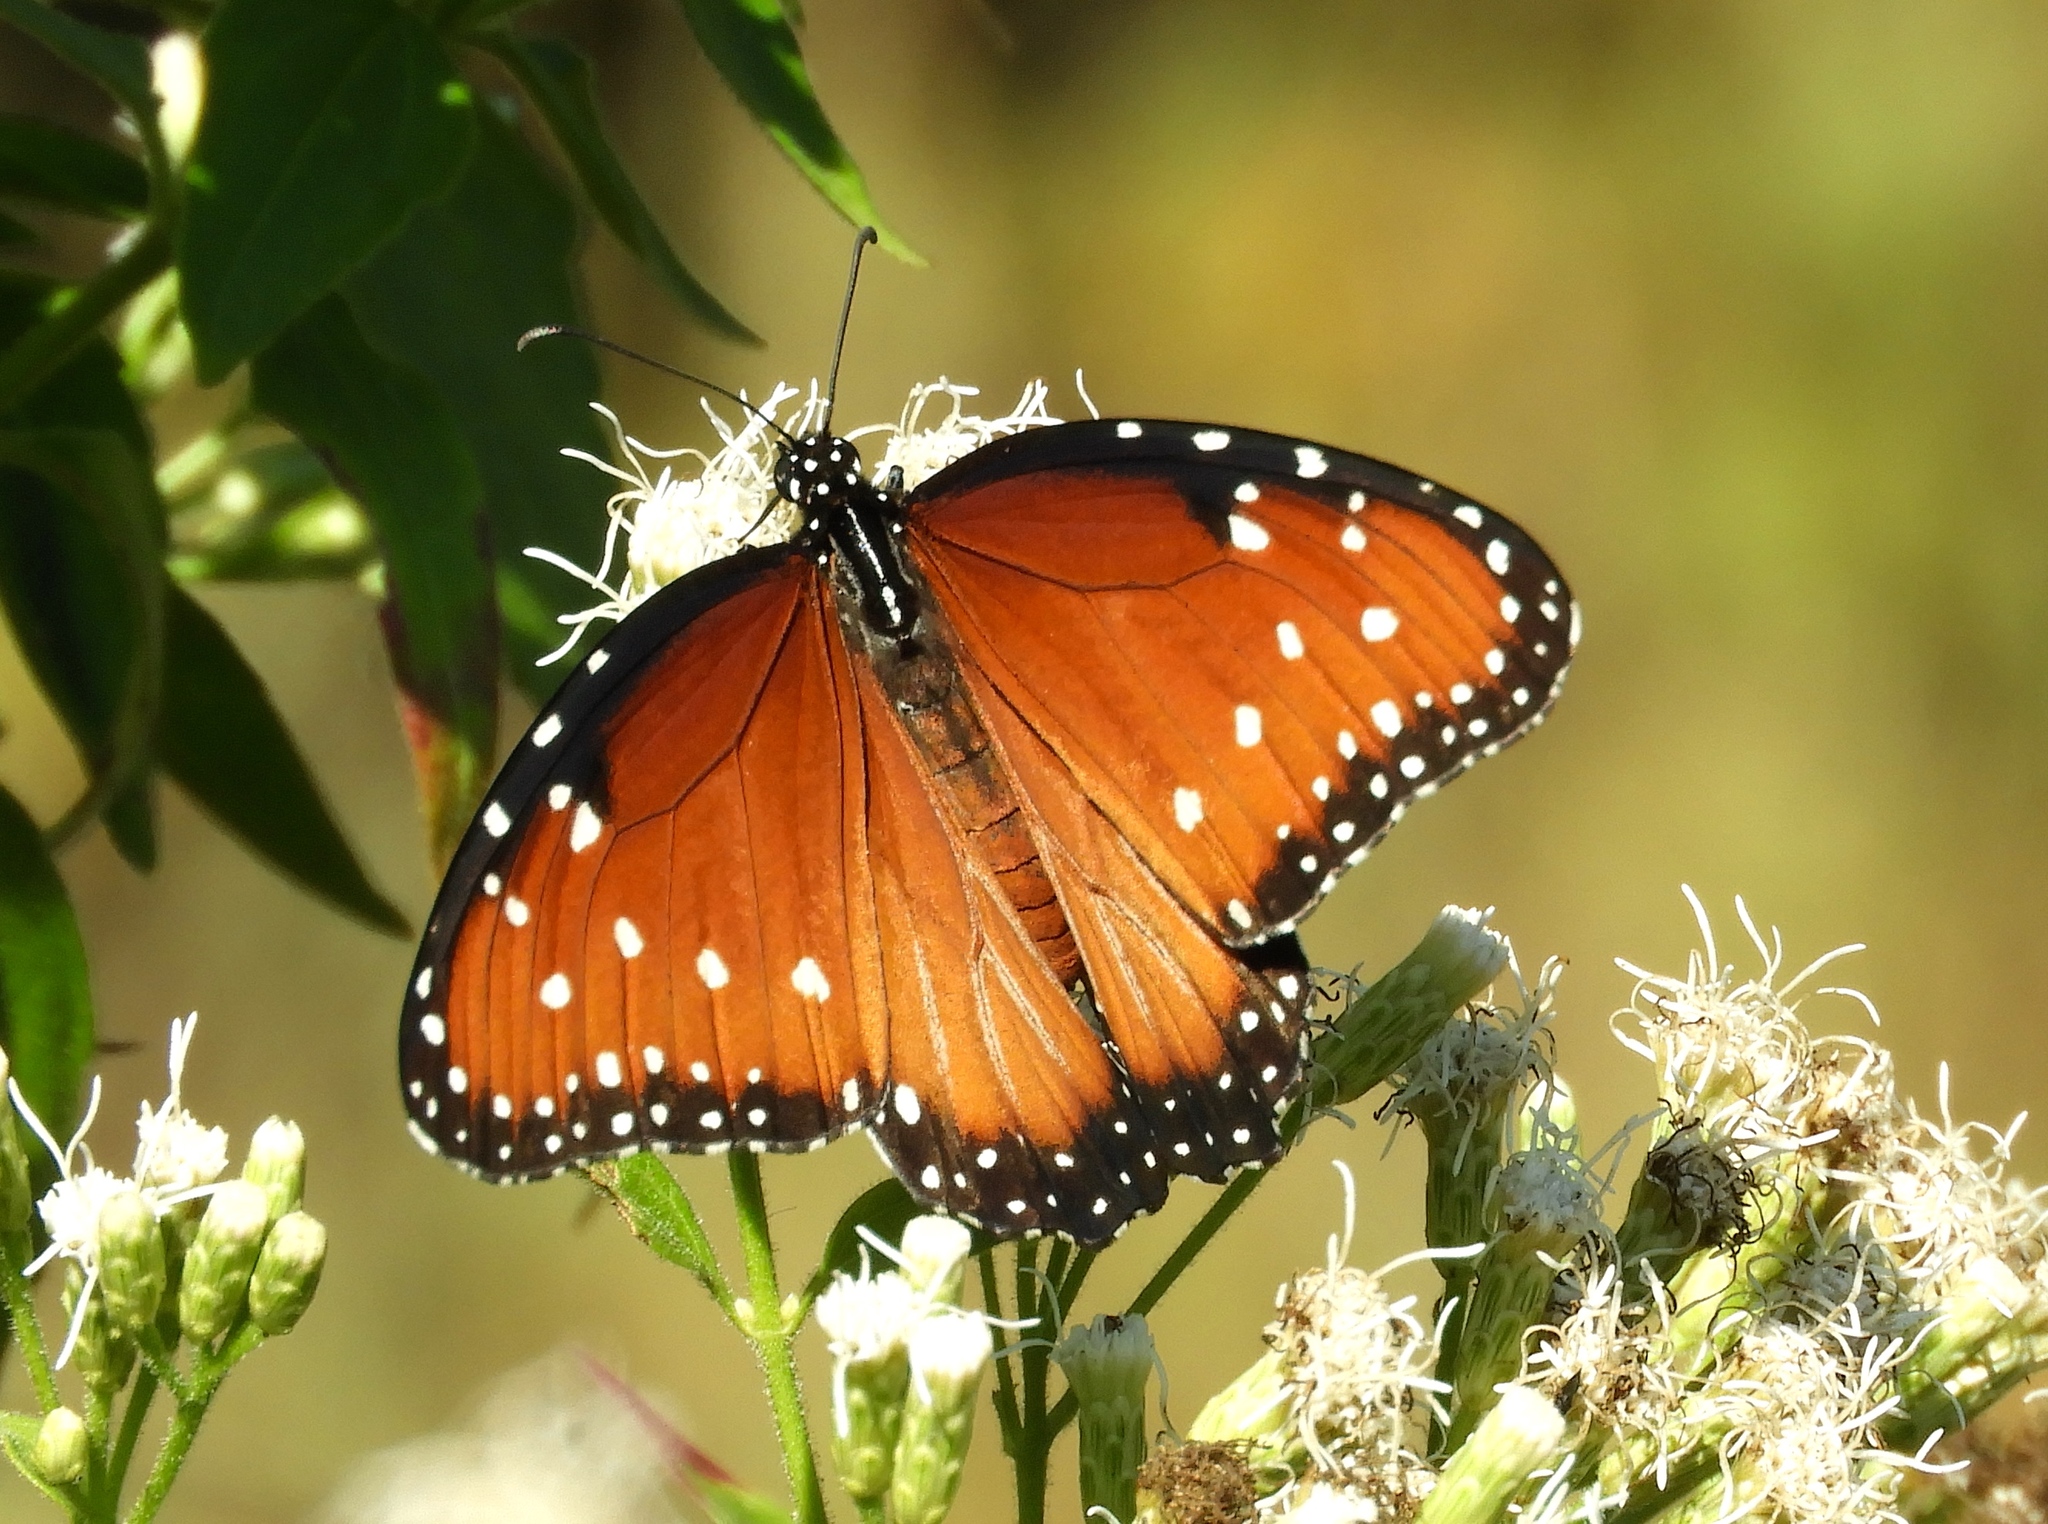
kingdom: Animalia
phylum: Arthropoda
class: Insecta
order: Lepidoptera
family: Nymphalidae
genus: Danaus
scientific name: Danaus gilippus
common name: Queen
